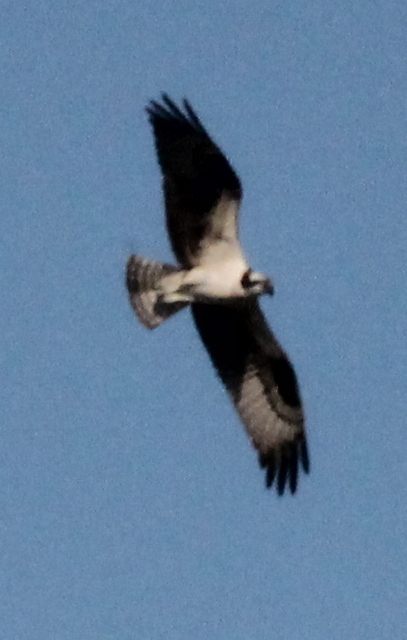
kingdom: Animalia
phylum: Chordata
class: Aves
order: Accipitriformes
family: Pandionidae
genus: Pandion
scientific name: Pandion haliaetus
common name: Osprey
